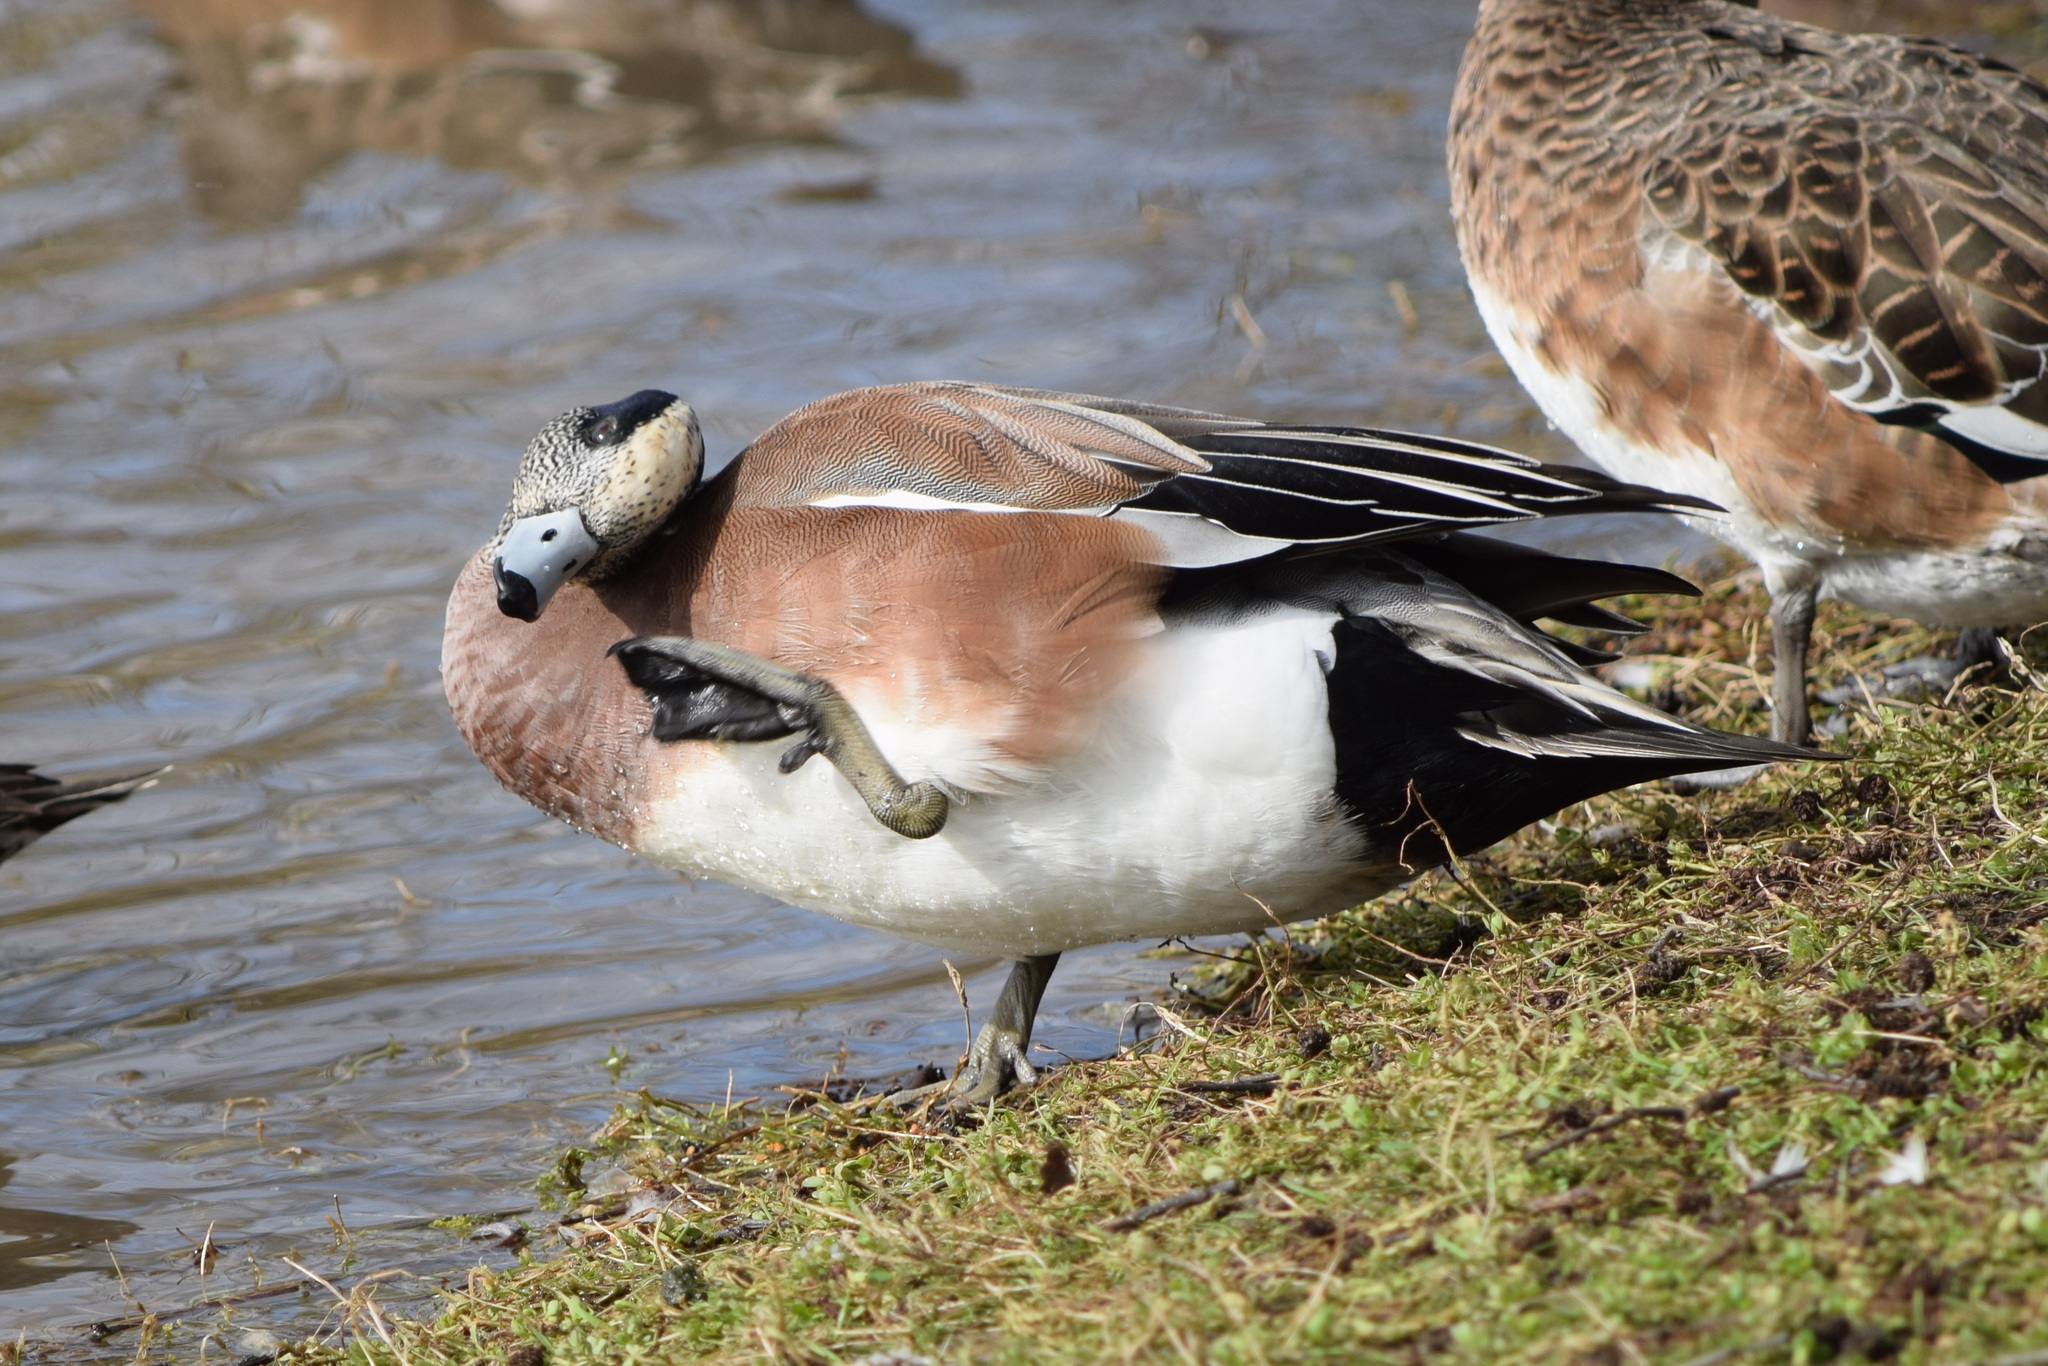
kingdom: Animalia
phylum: Chordata
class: Aves
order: Anseriformes
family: Anatidae
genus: Mareca
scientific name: Mareca americana
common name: American wigeon
